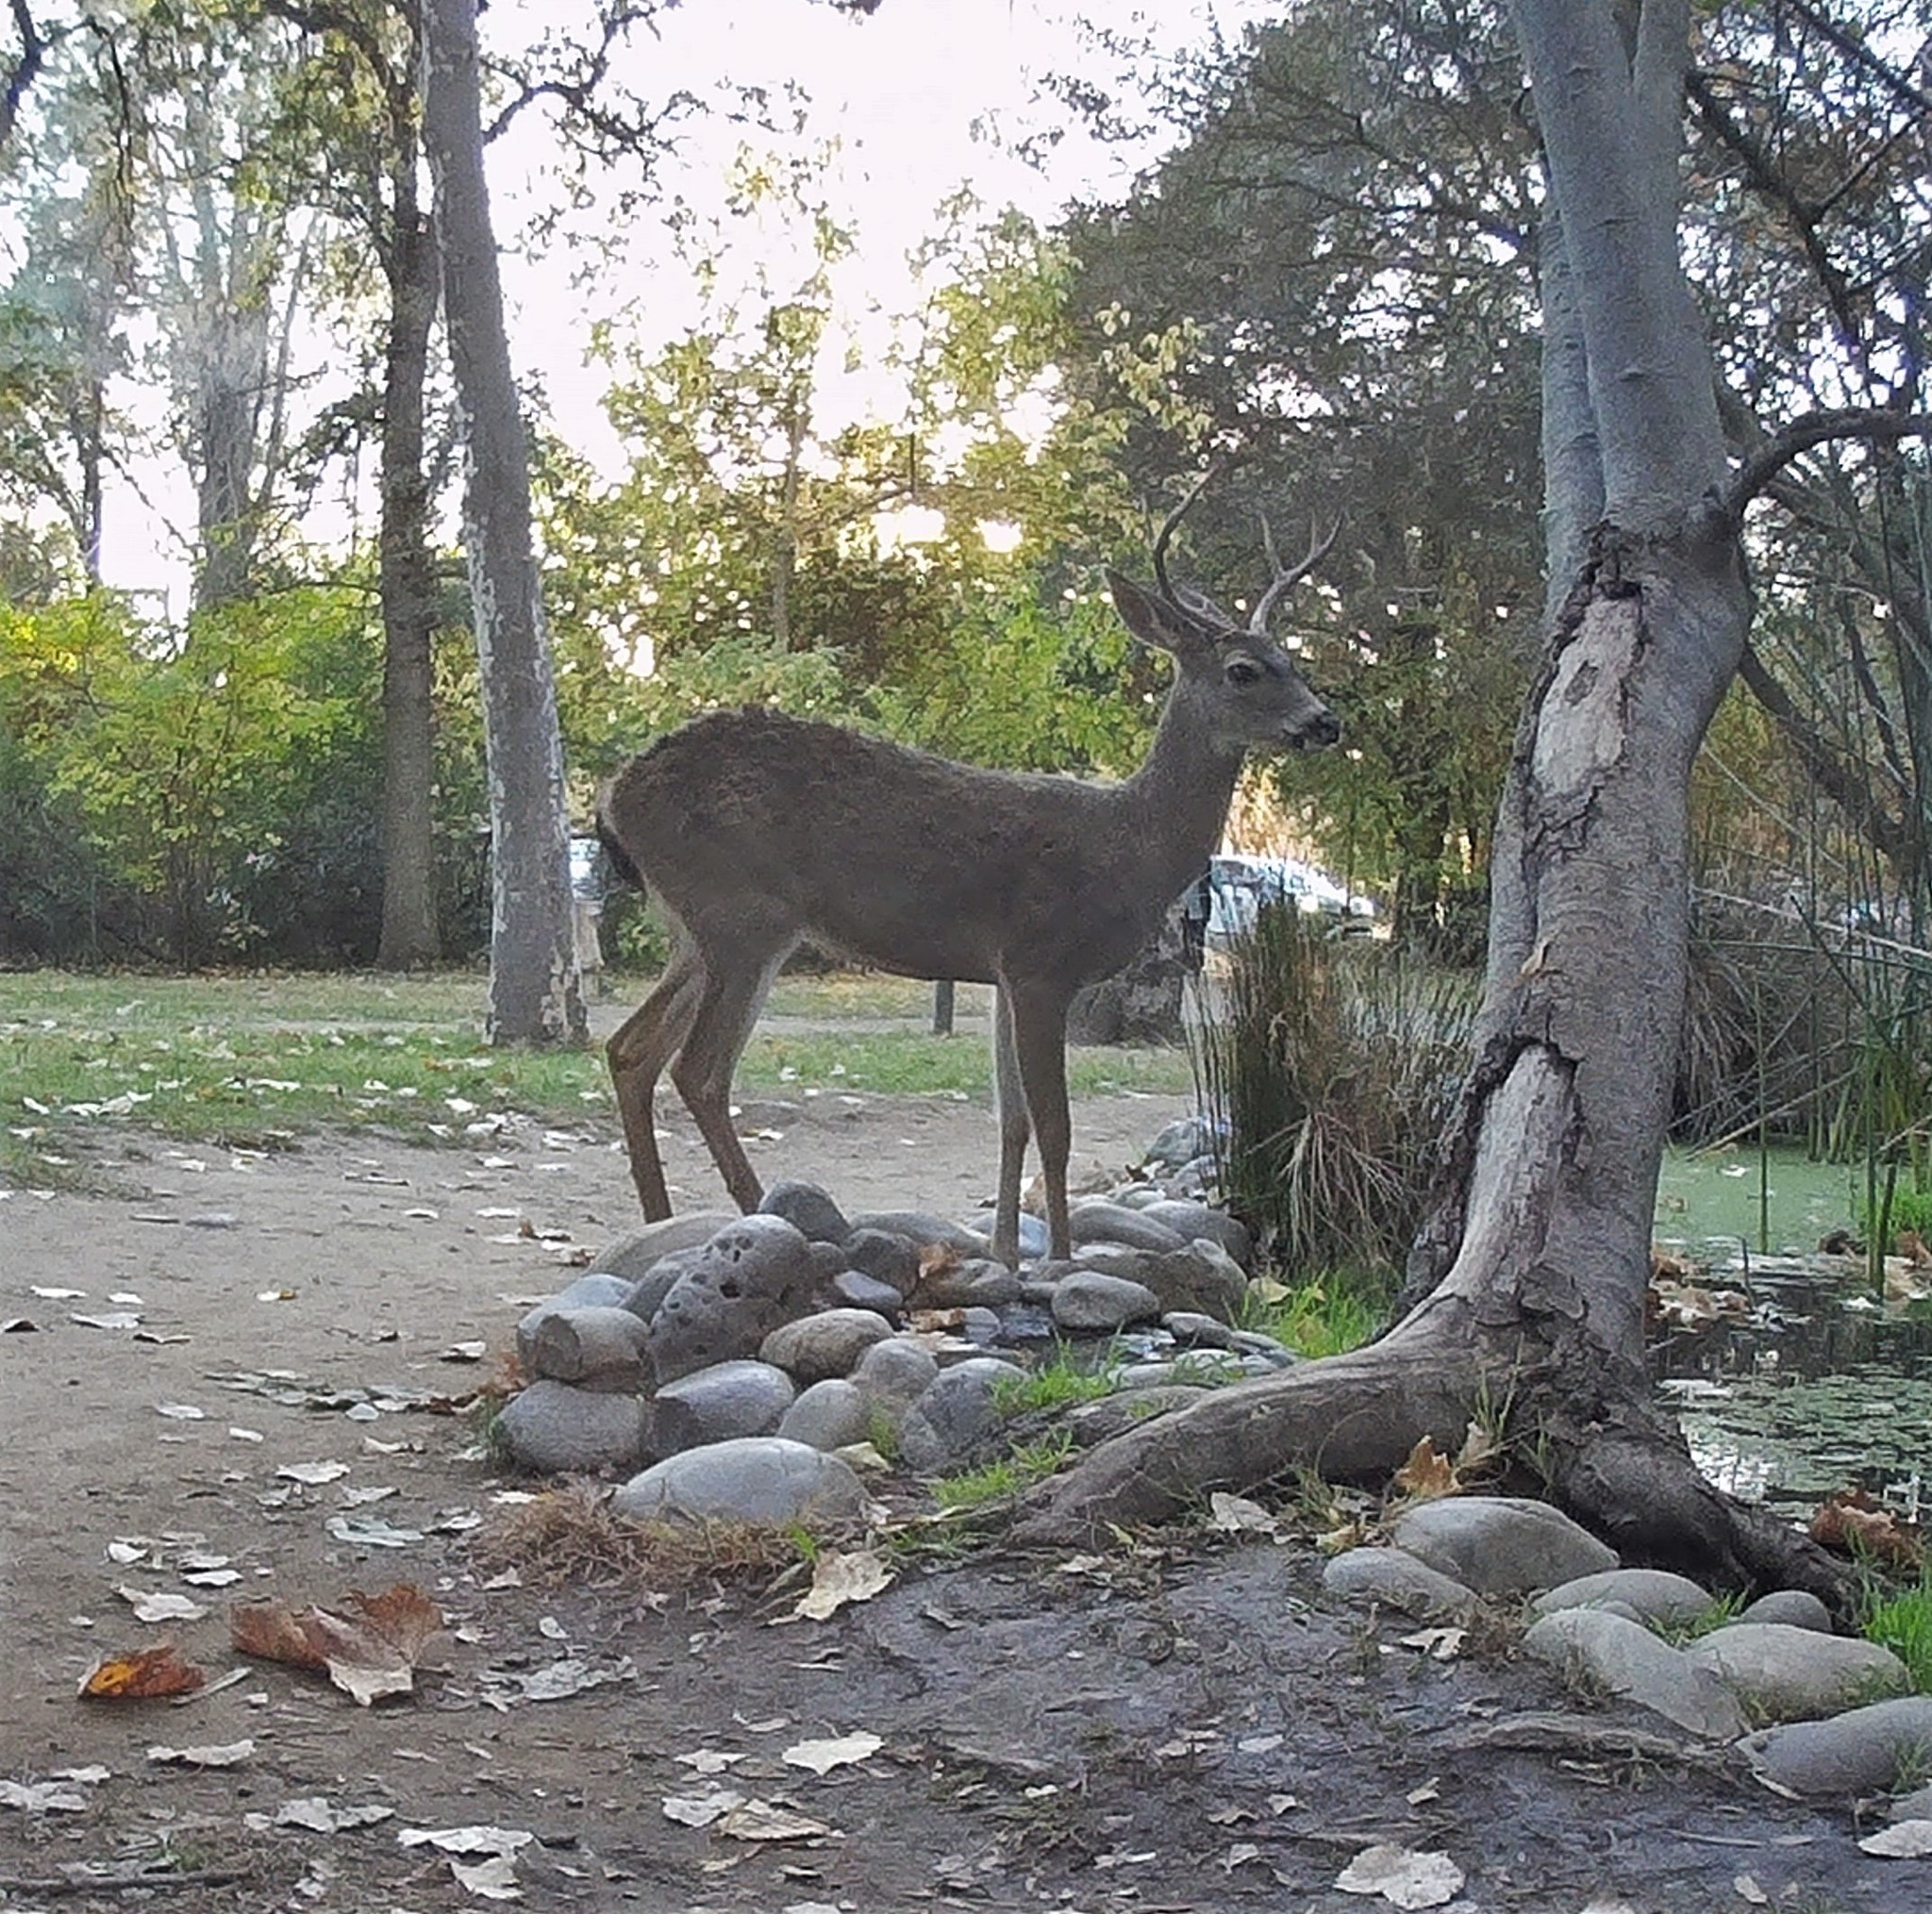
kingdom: Animalia
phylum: Chordata
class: Mammalia
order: Artiodactyla
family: Cervidae
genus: Odocoileus
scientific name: Odocoileus hemionus
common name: Mule deer
